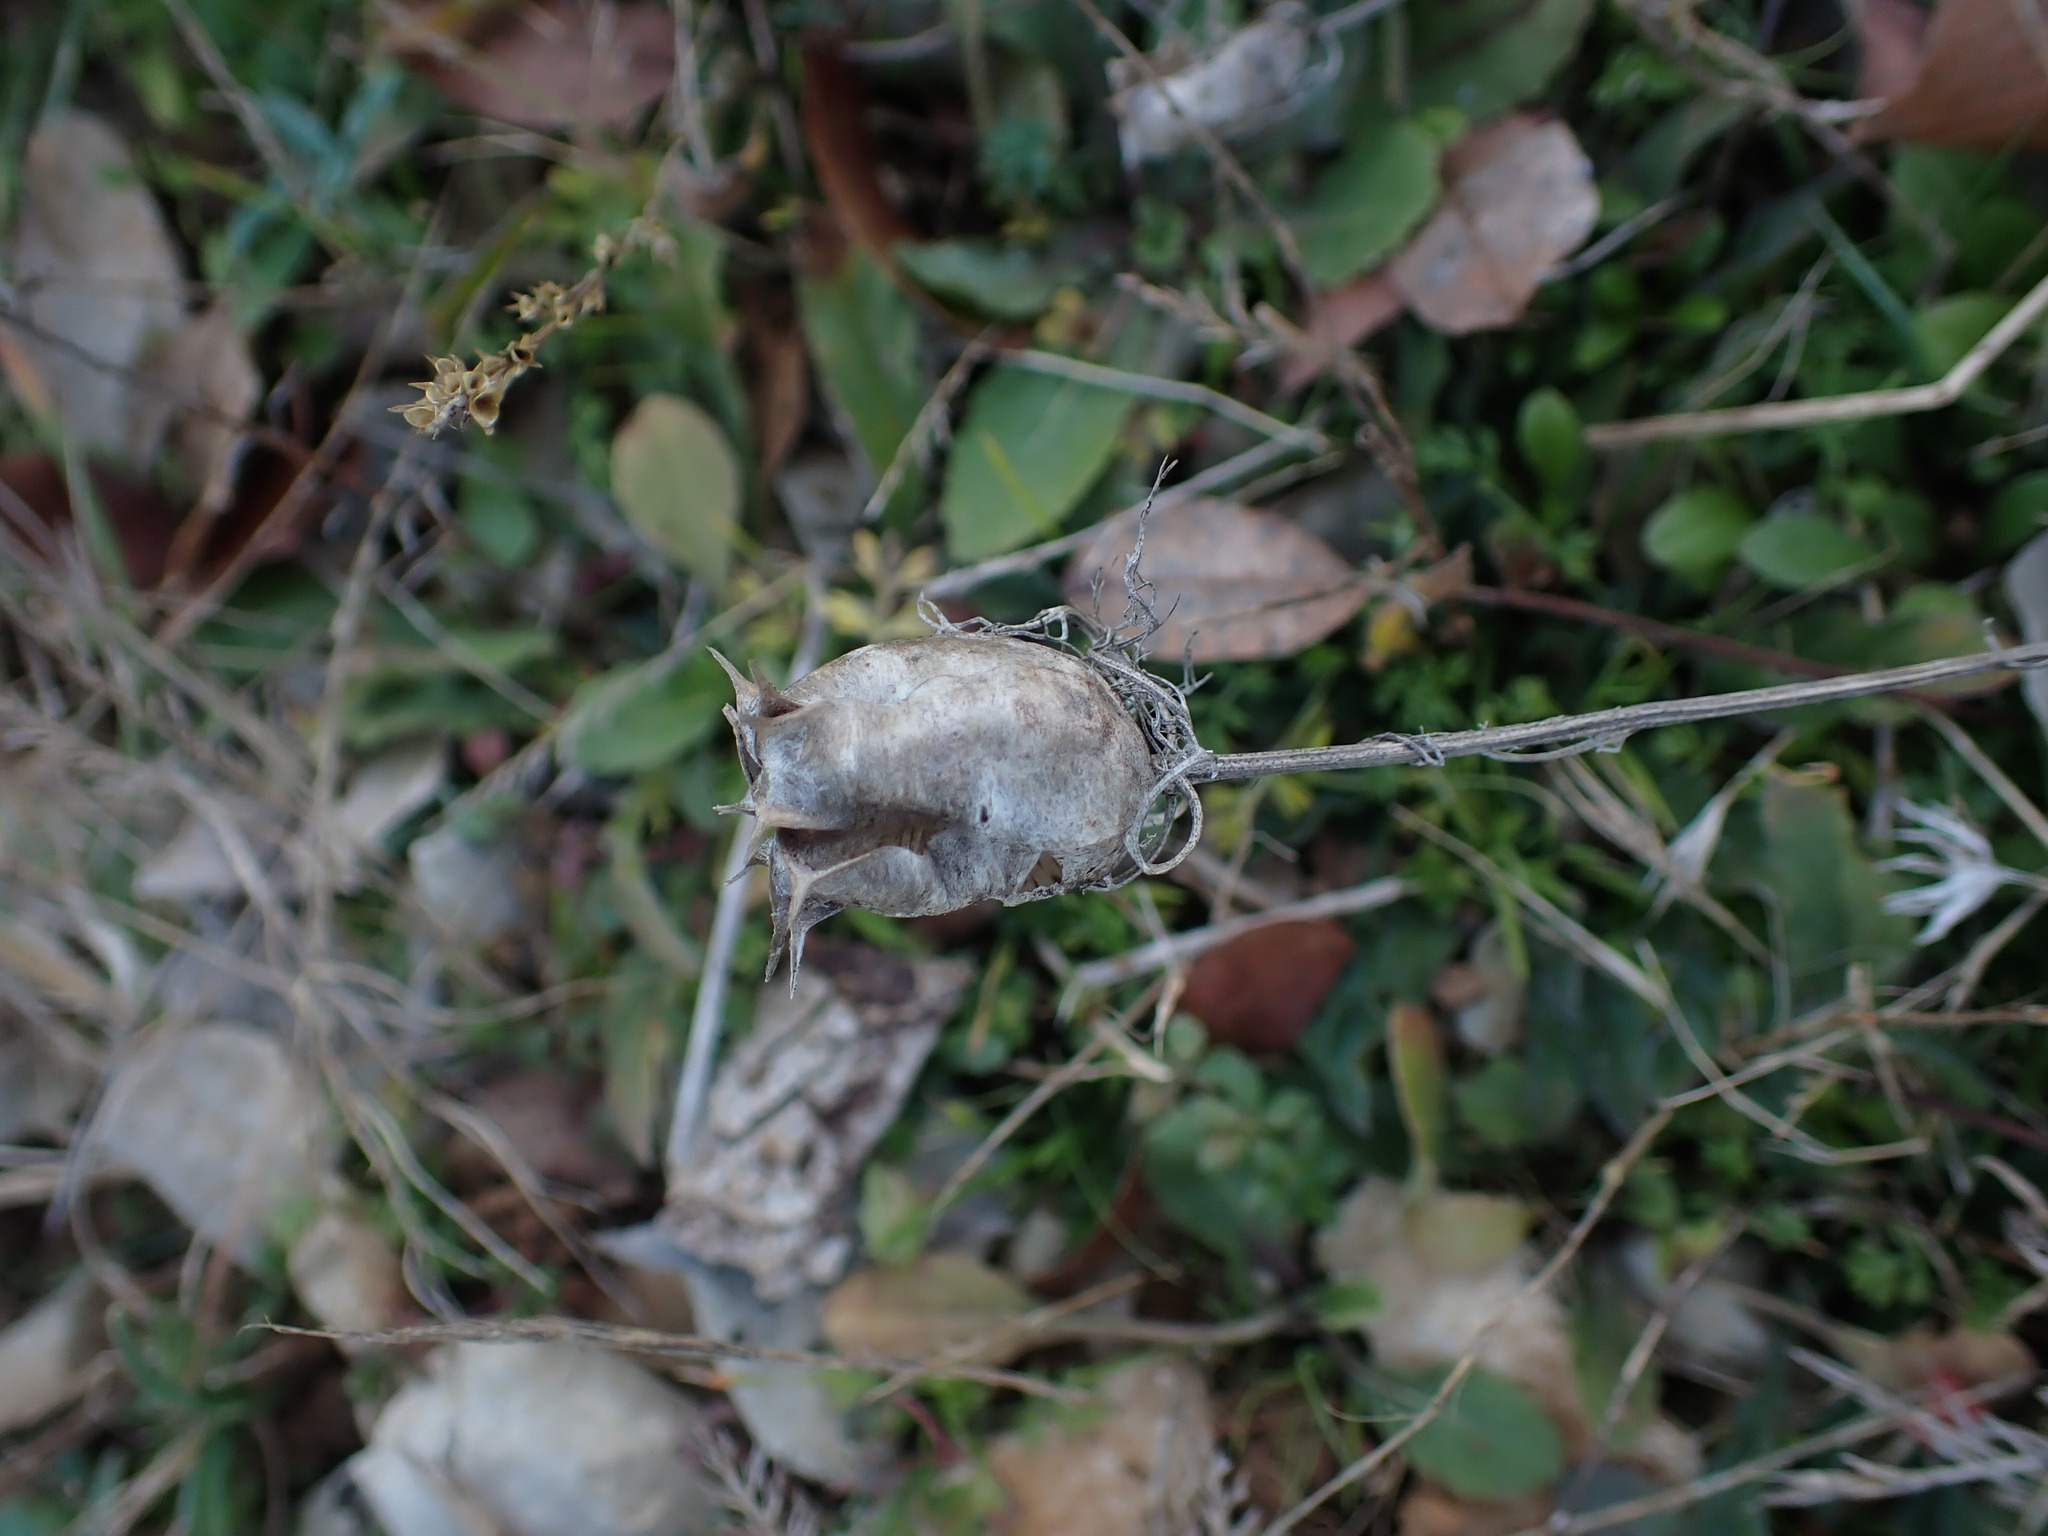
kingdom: Plantae
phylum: Tracheophyta
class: Magnoliopsida
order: Ranunculales
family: Ranunculaceae
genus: Nigella
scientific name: Nigella damascena
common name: Love-in-a-mist
